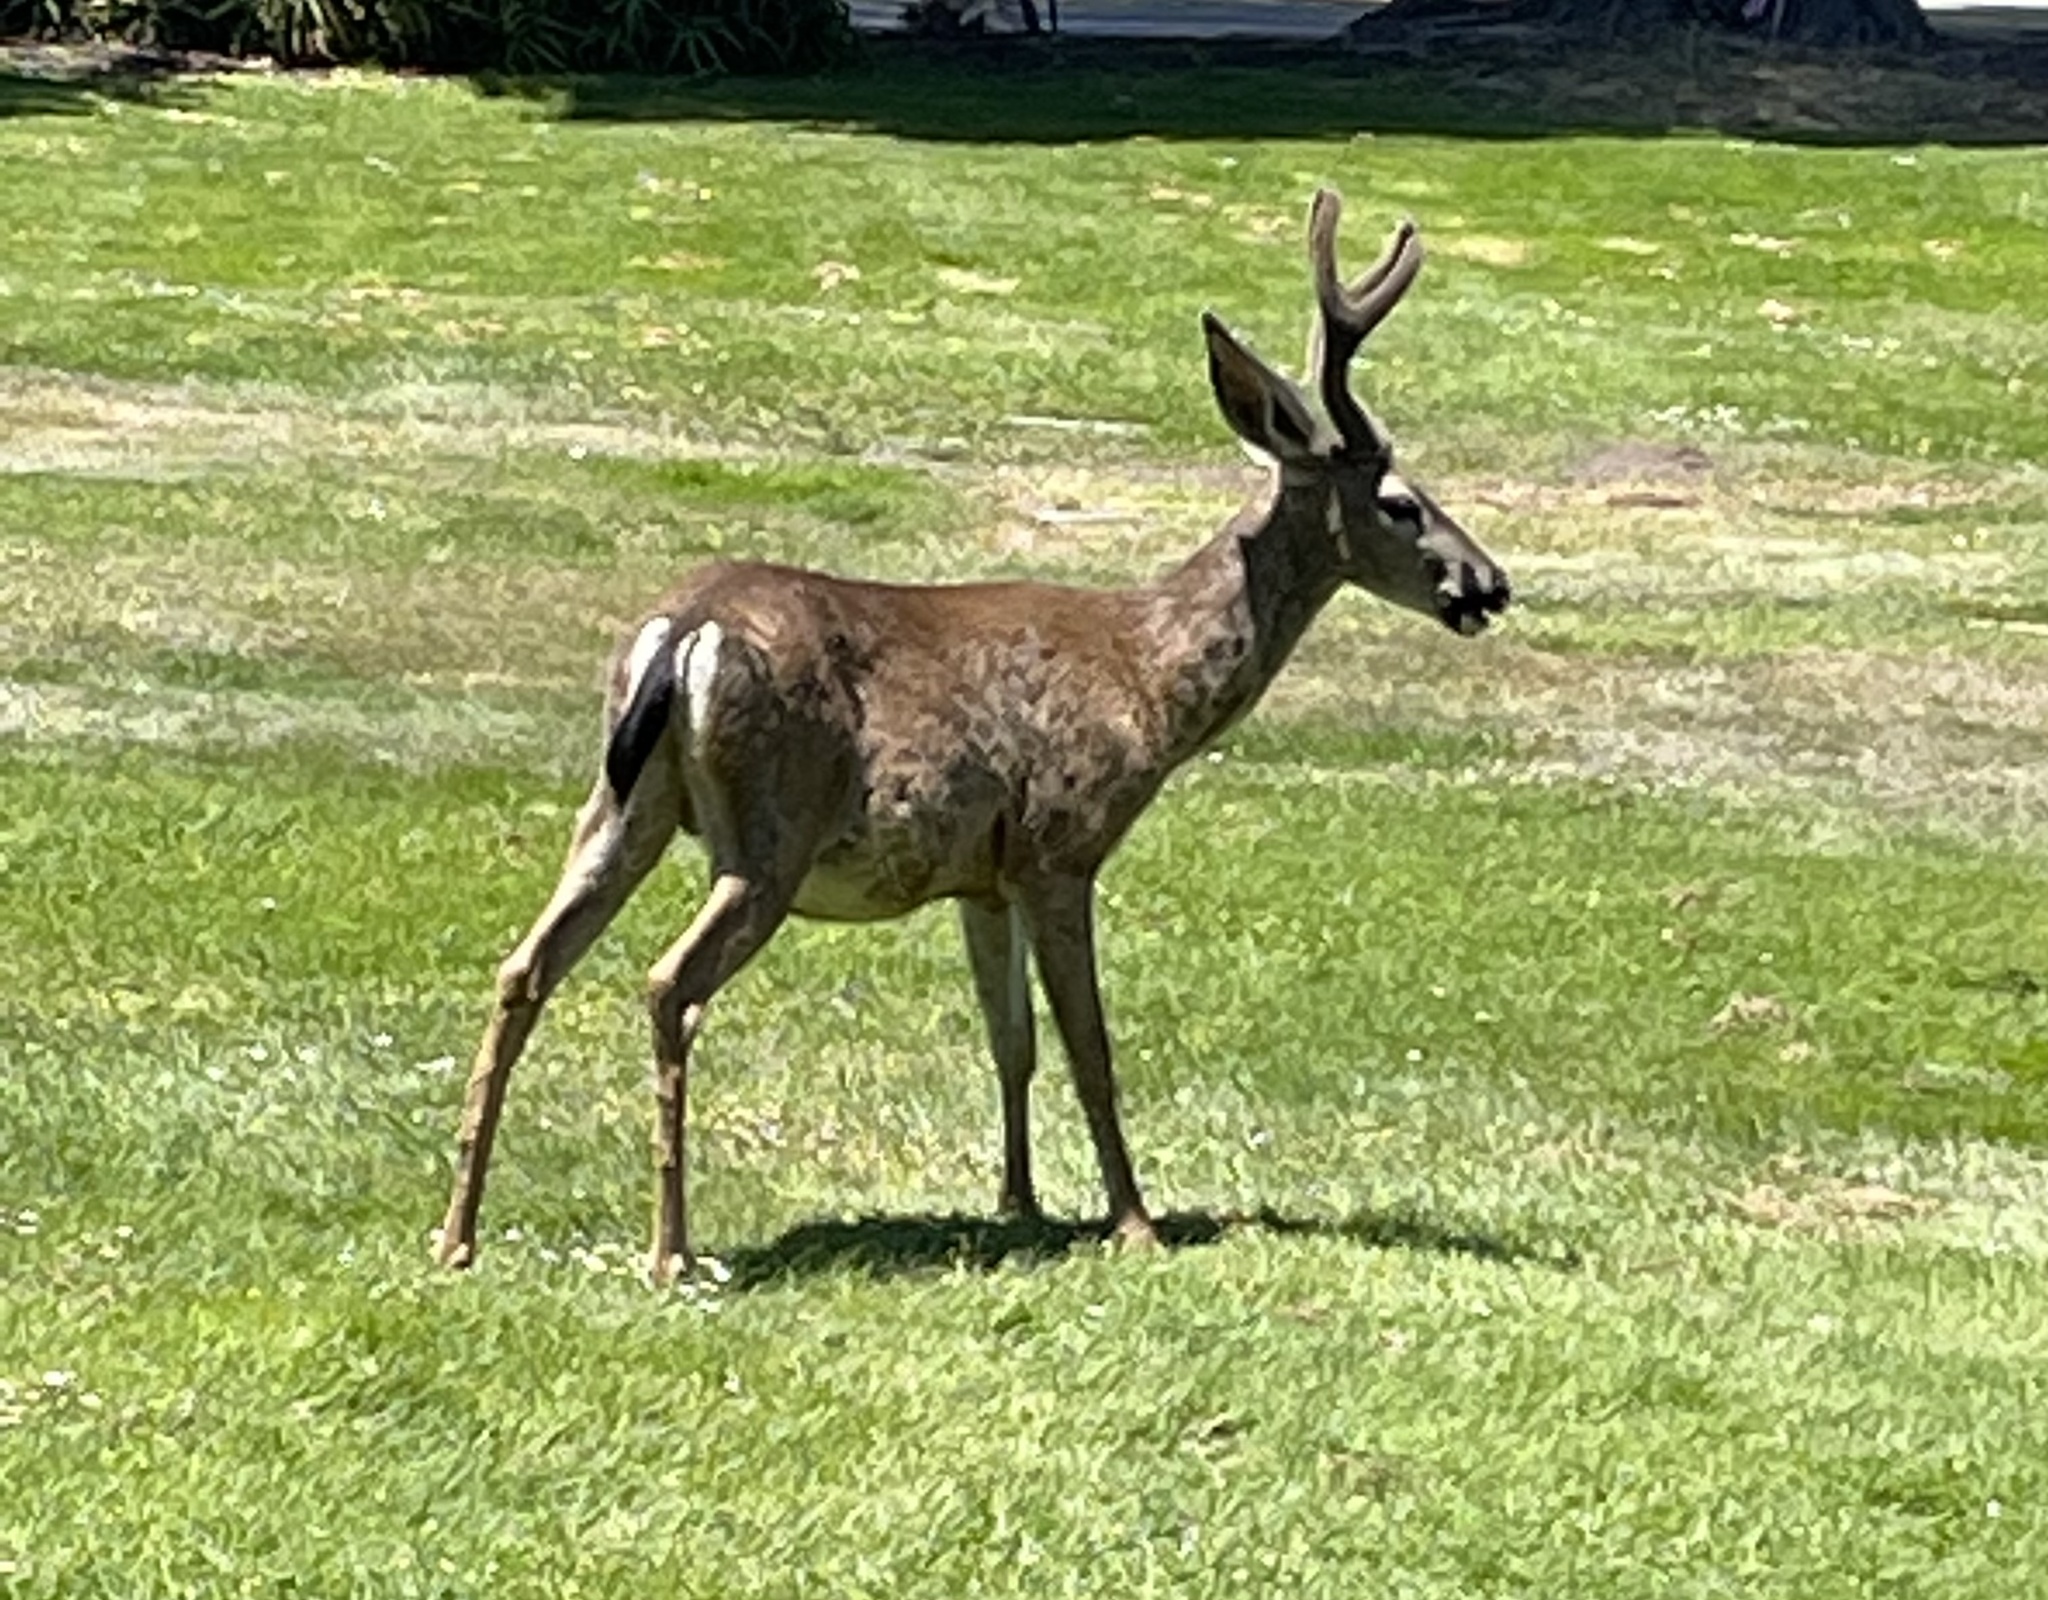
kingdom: Animalia
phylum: Chordata
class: Mammalia
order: Artiodactyla
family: Cervidae
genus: Odocoileus
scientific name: Odocoileus hemionus
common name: Mule deer
